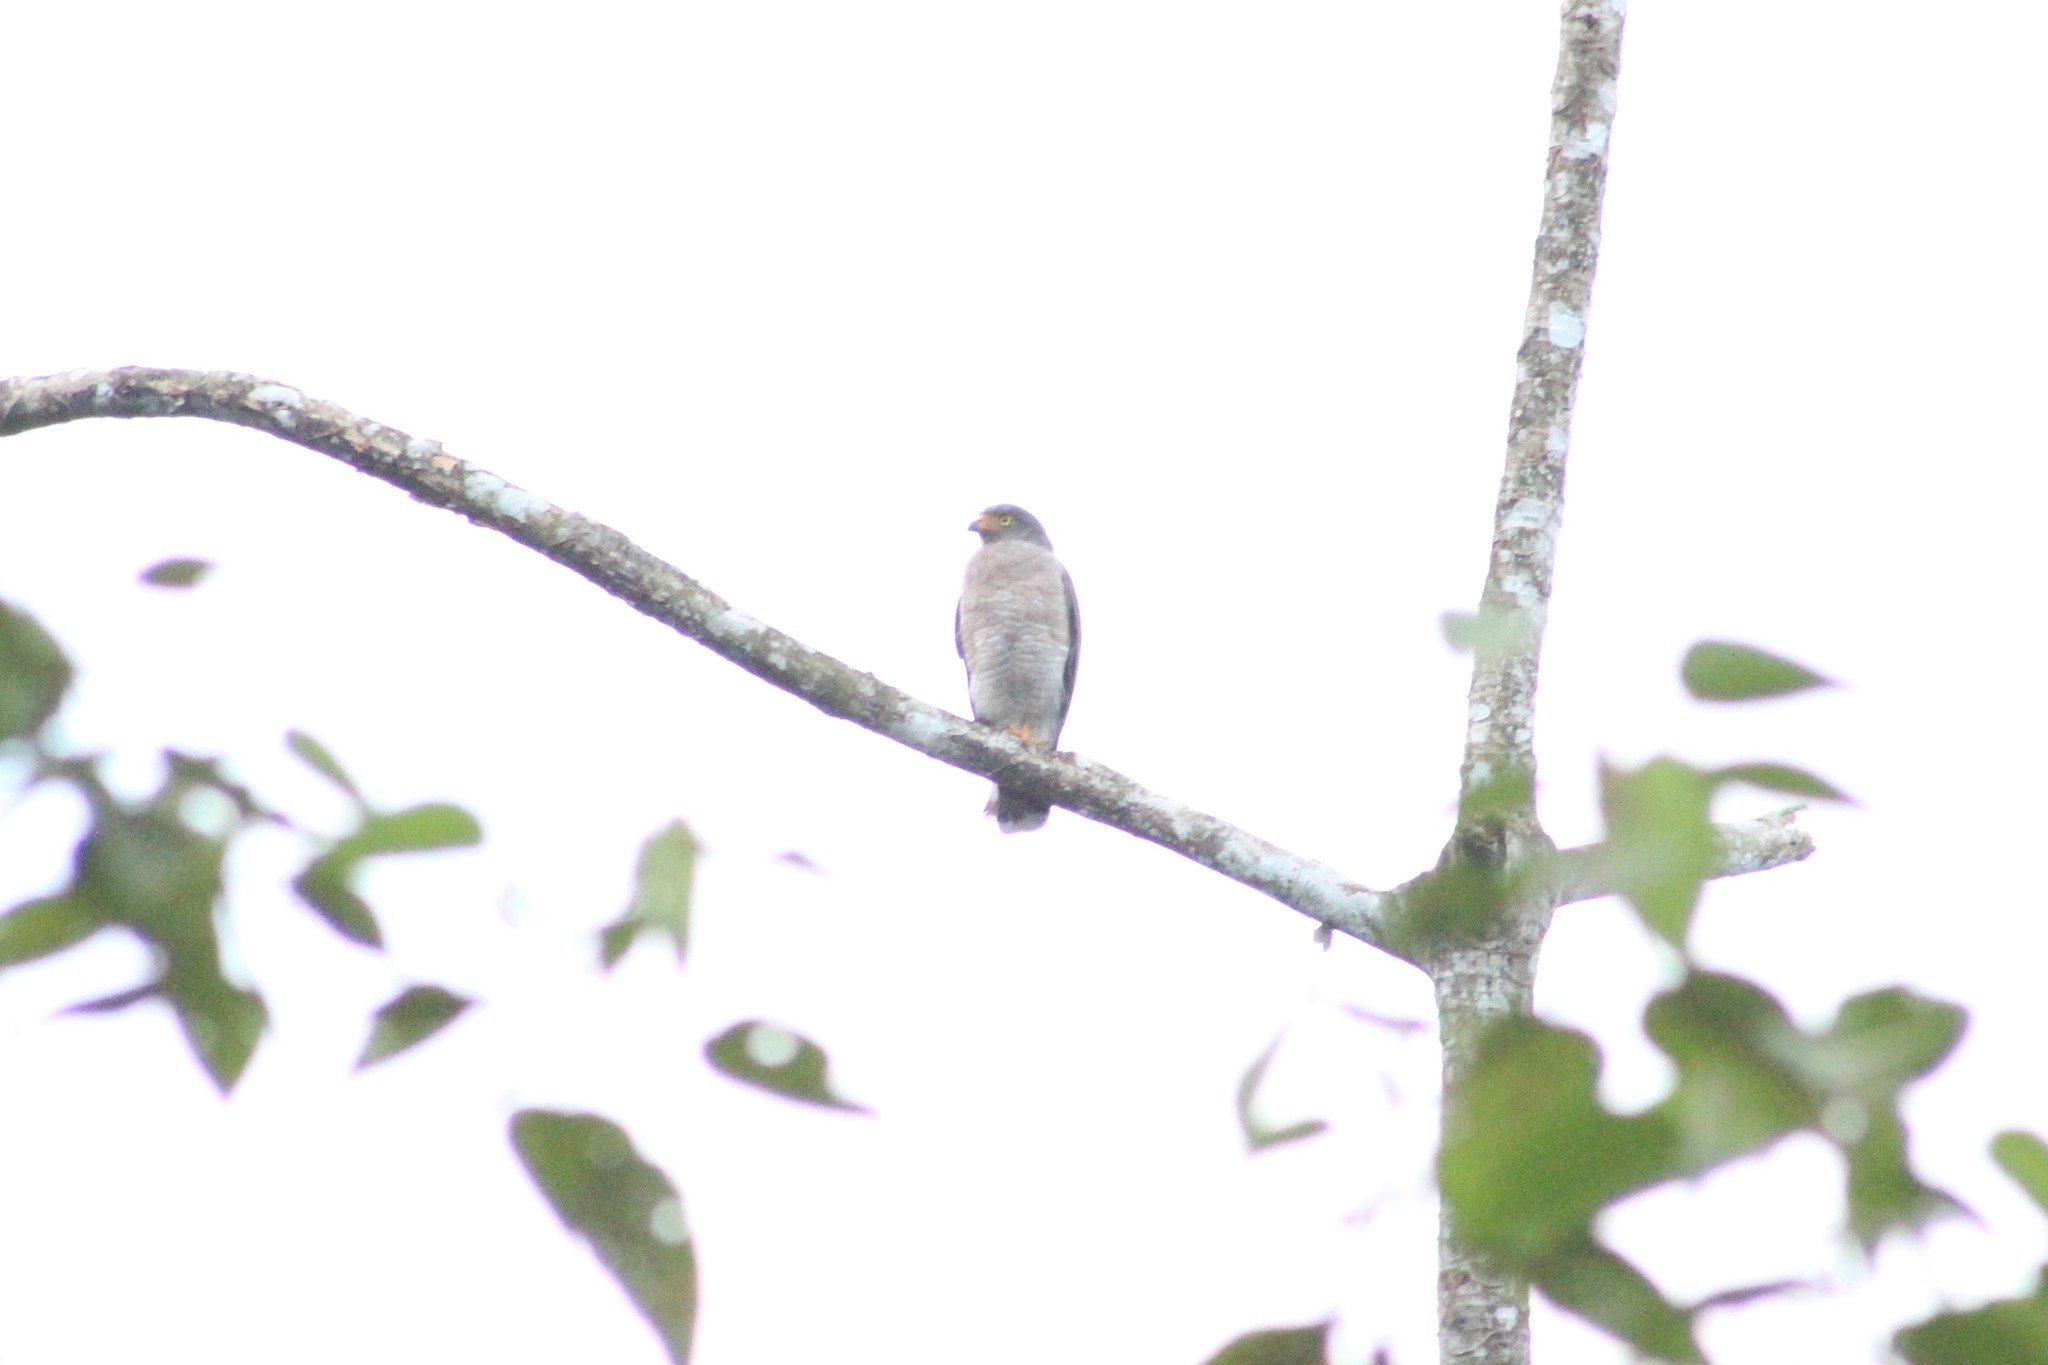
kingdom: Animalia
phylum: Chordata
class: Aves
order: Accipitriformes
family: Accipitridae
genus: Rupornis
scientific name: Rupornis magnirostris
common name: Roadside hawk
